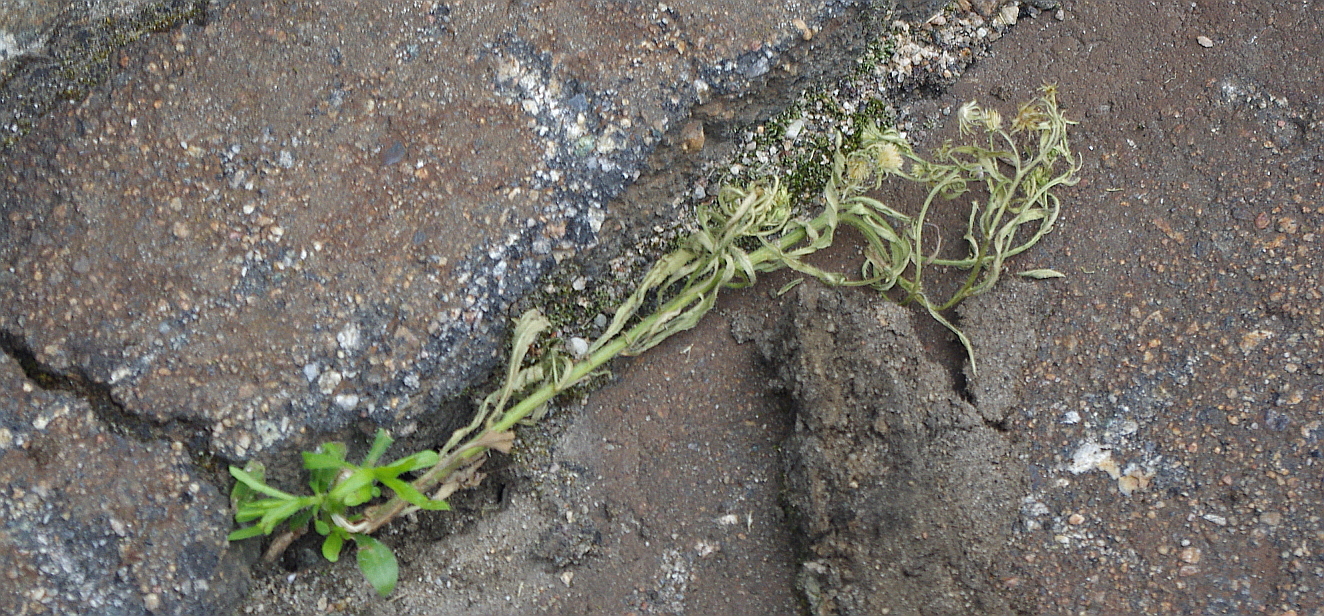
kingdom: Plantae
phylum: Tracheophyta
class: Magnoliopsida
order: Asterales
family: Asteraceae
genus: Erigeron
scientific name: Erigeron canadensis
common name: Canadian fleabane
